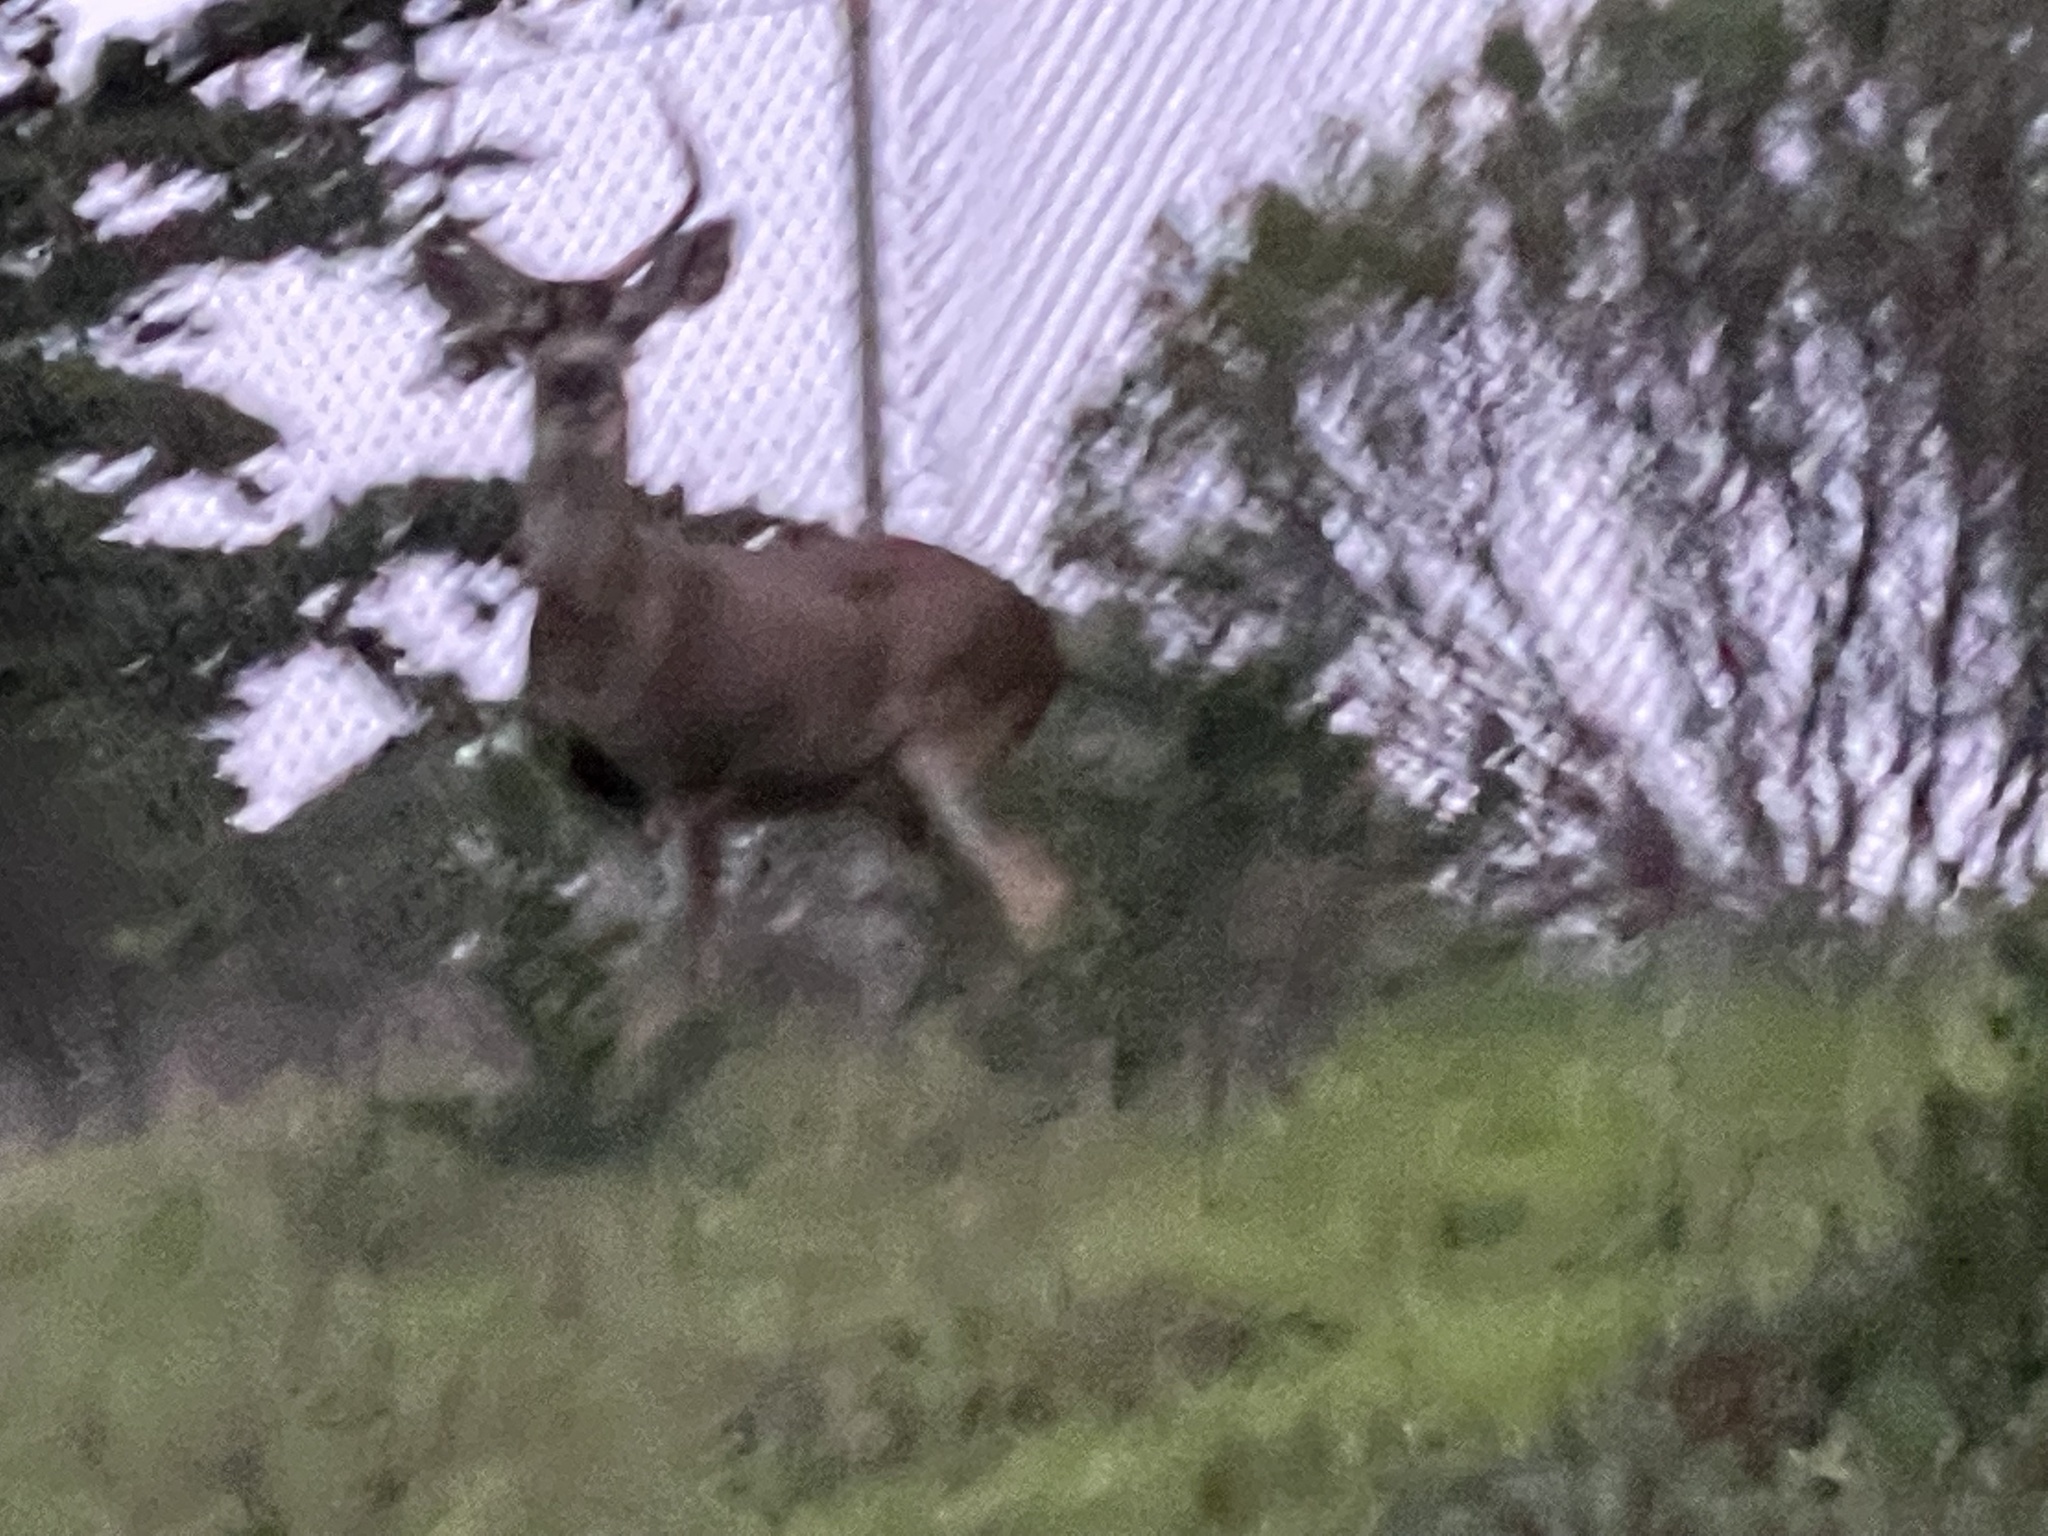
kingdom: Animalia
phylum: Chordata
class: Mammalia
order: Artiodactyla
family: Cervidae
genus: Odocoileus
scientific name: Odocoileus hemionus
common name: Mule deer
